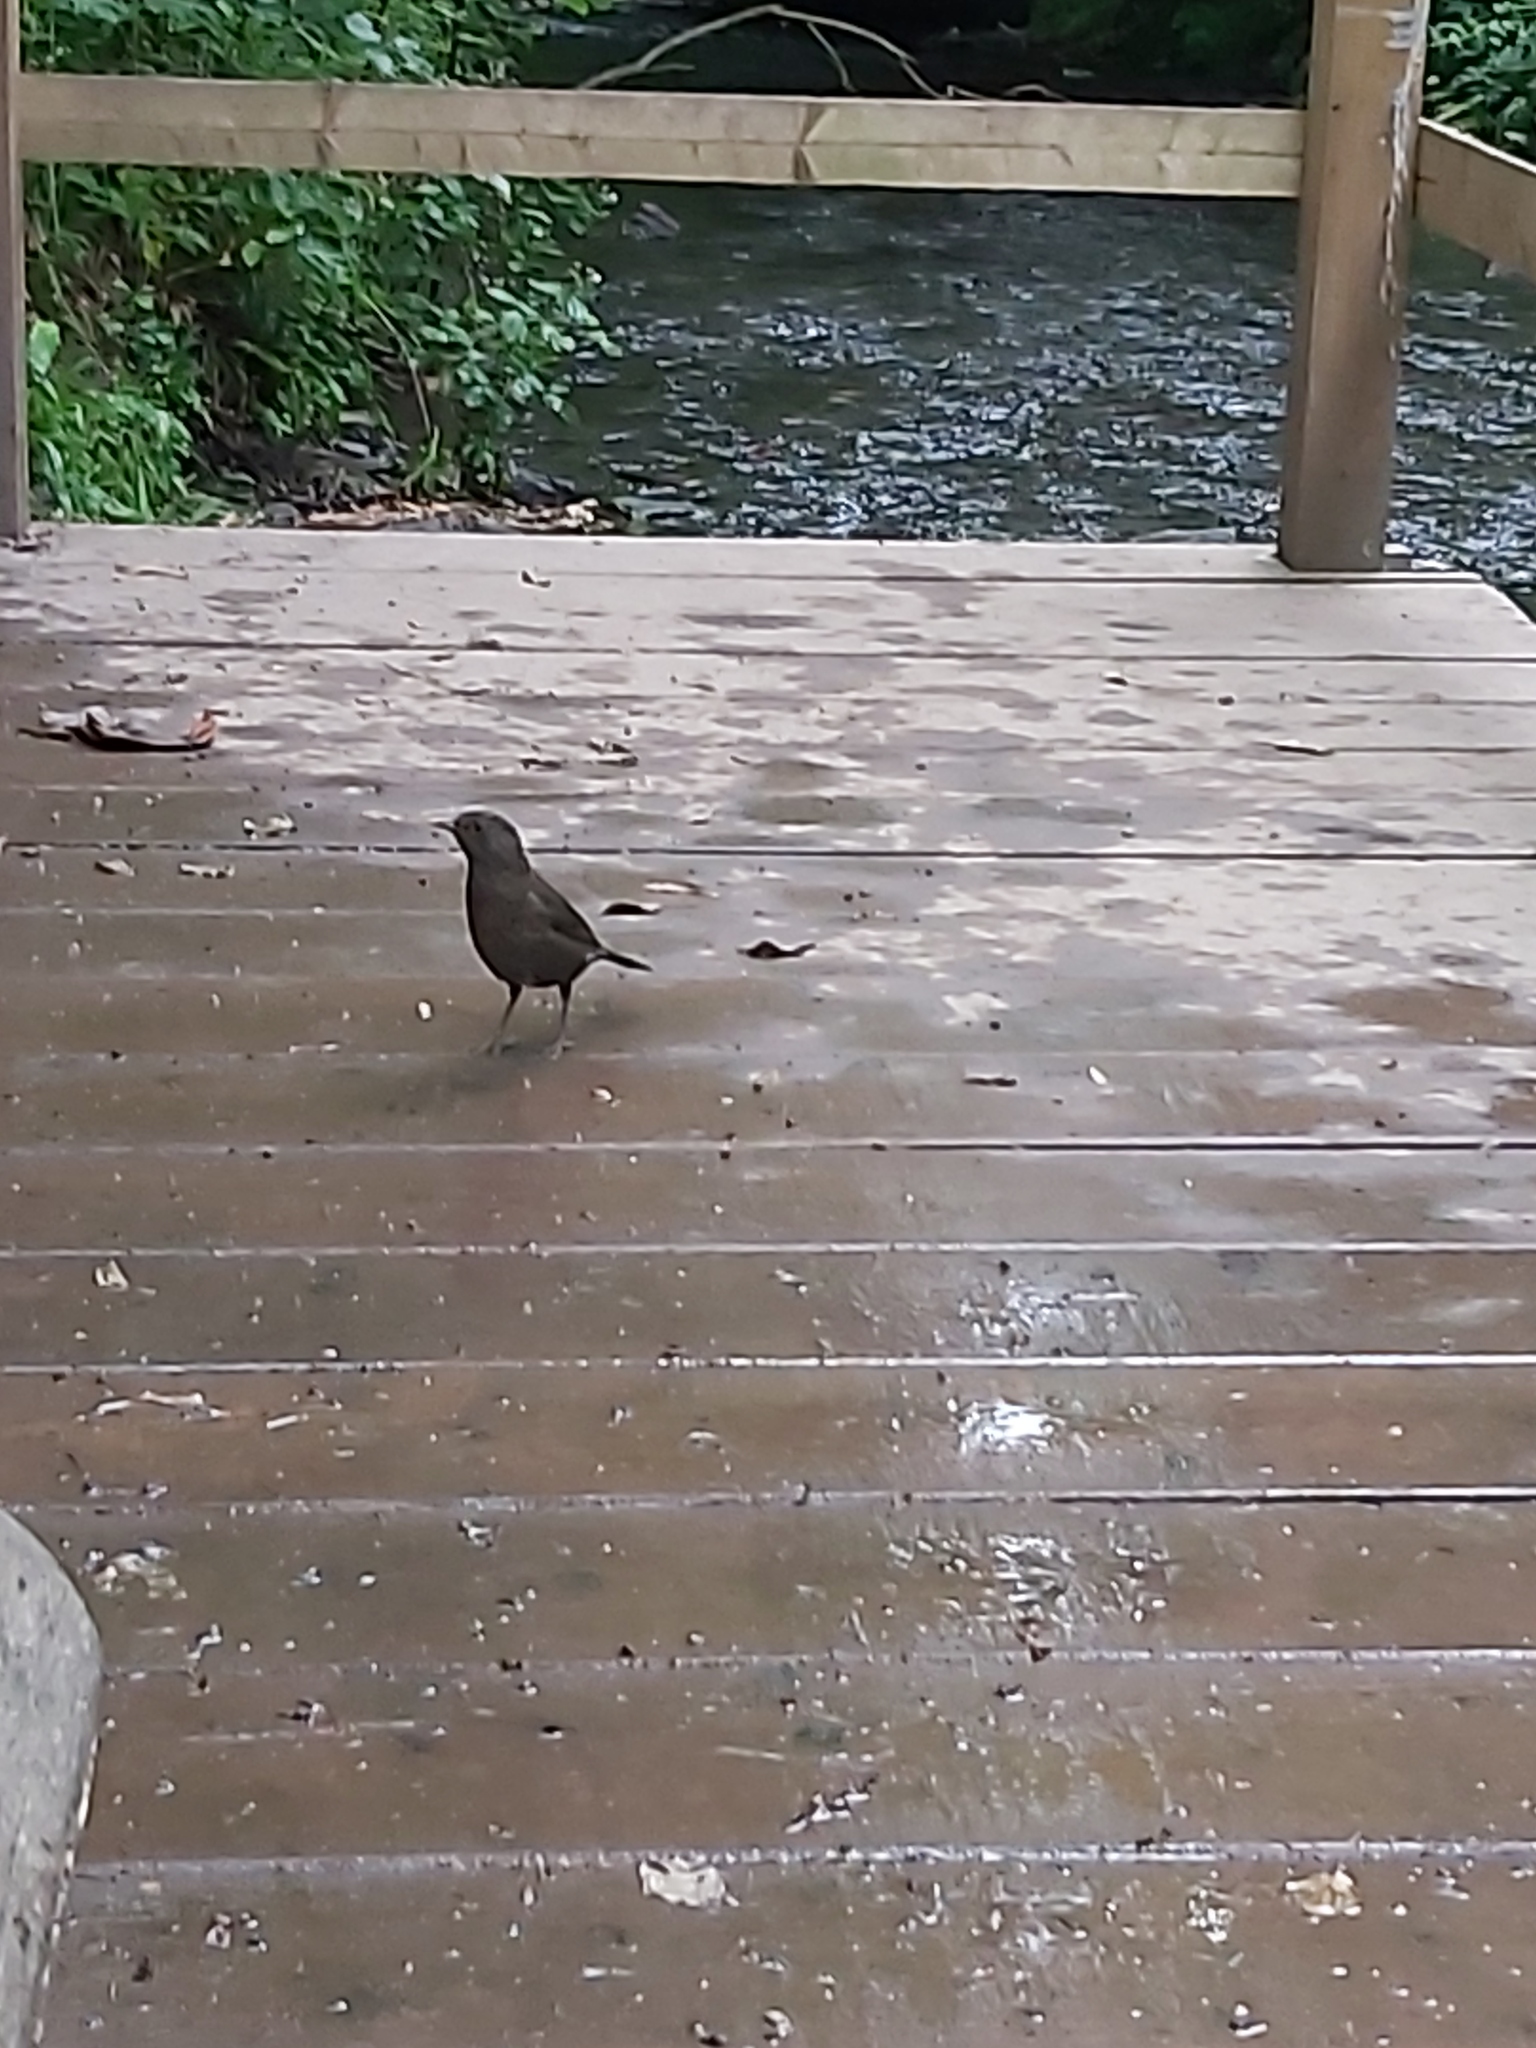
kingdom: Animalia
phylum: Chordata
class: Aves
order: Passeriformes
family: Turdidae
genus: Turdus
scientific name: Turdus merula
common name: Common blackbird
